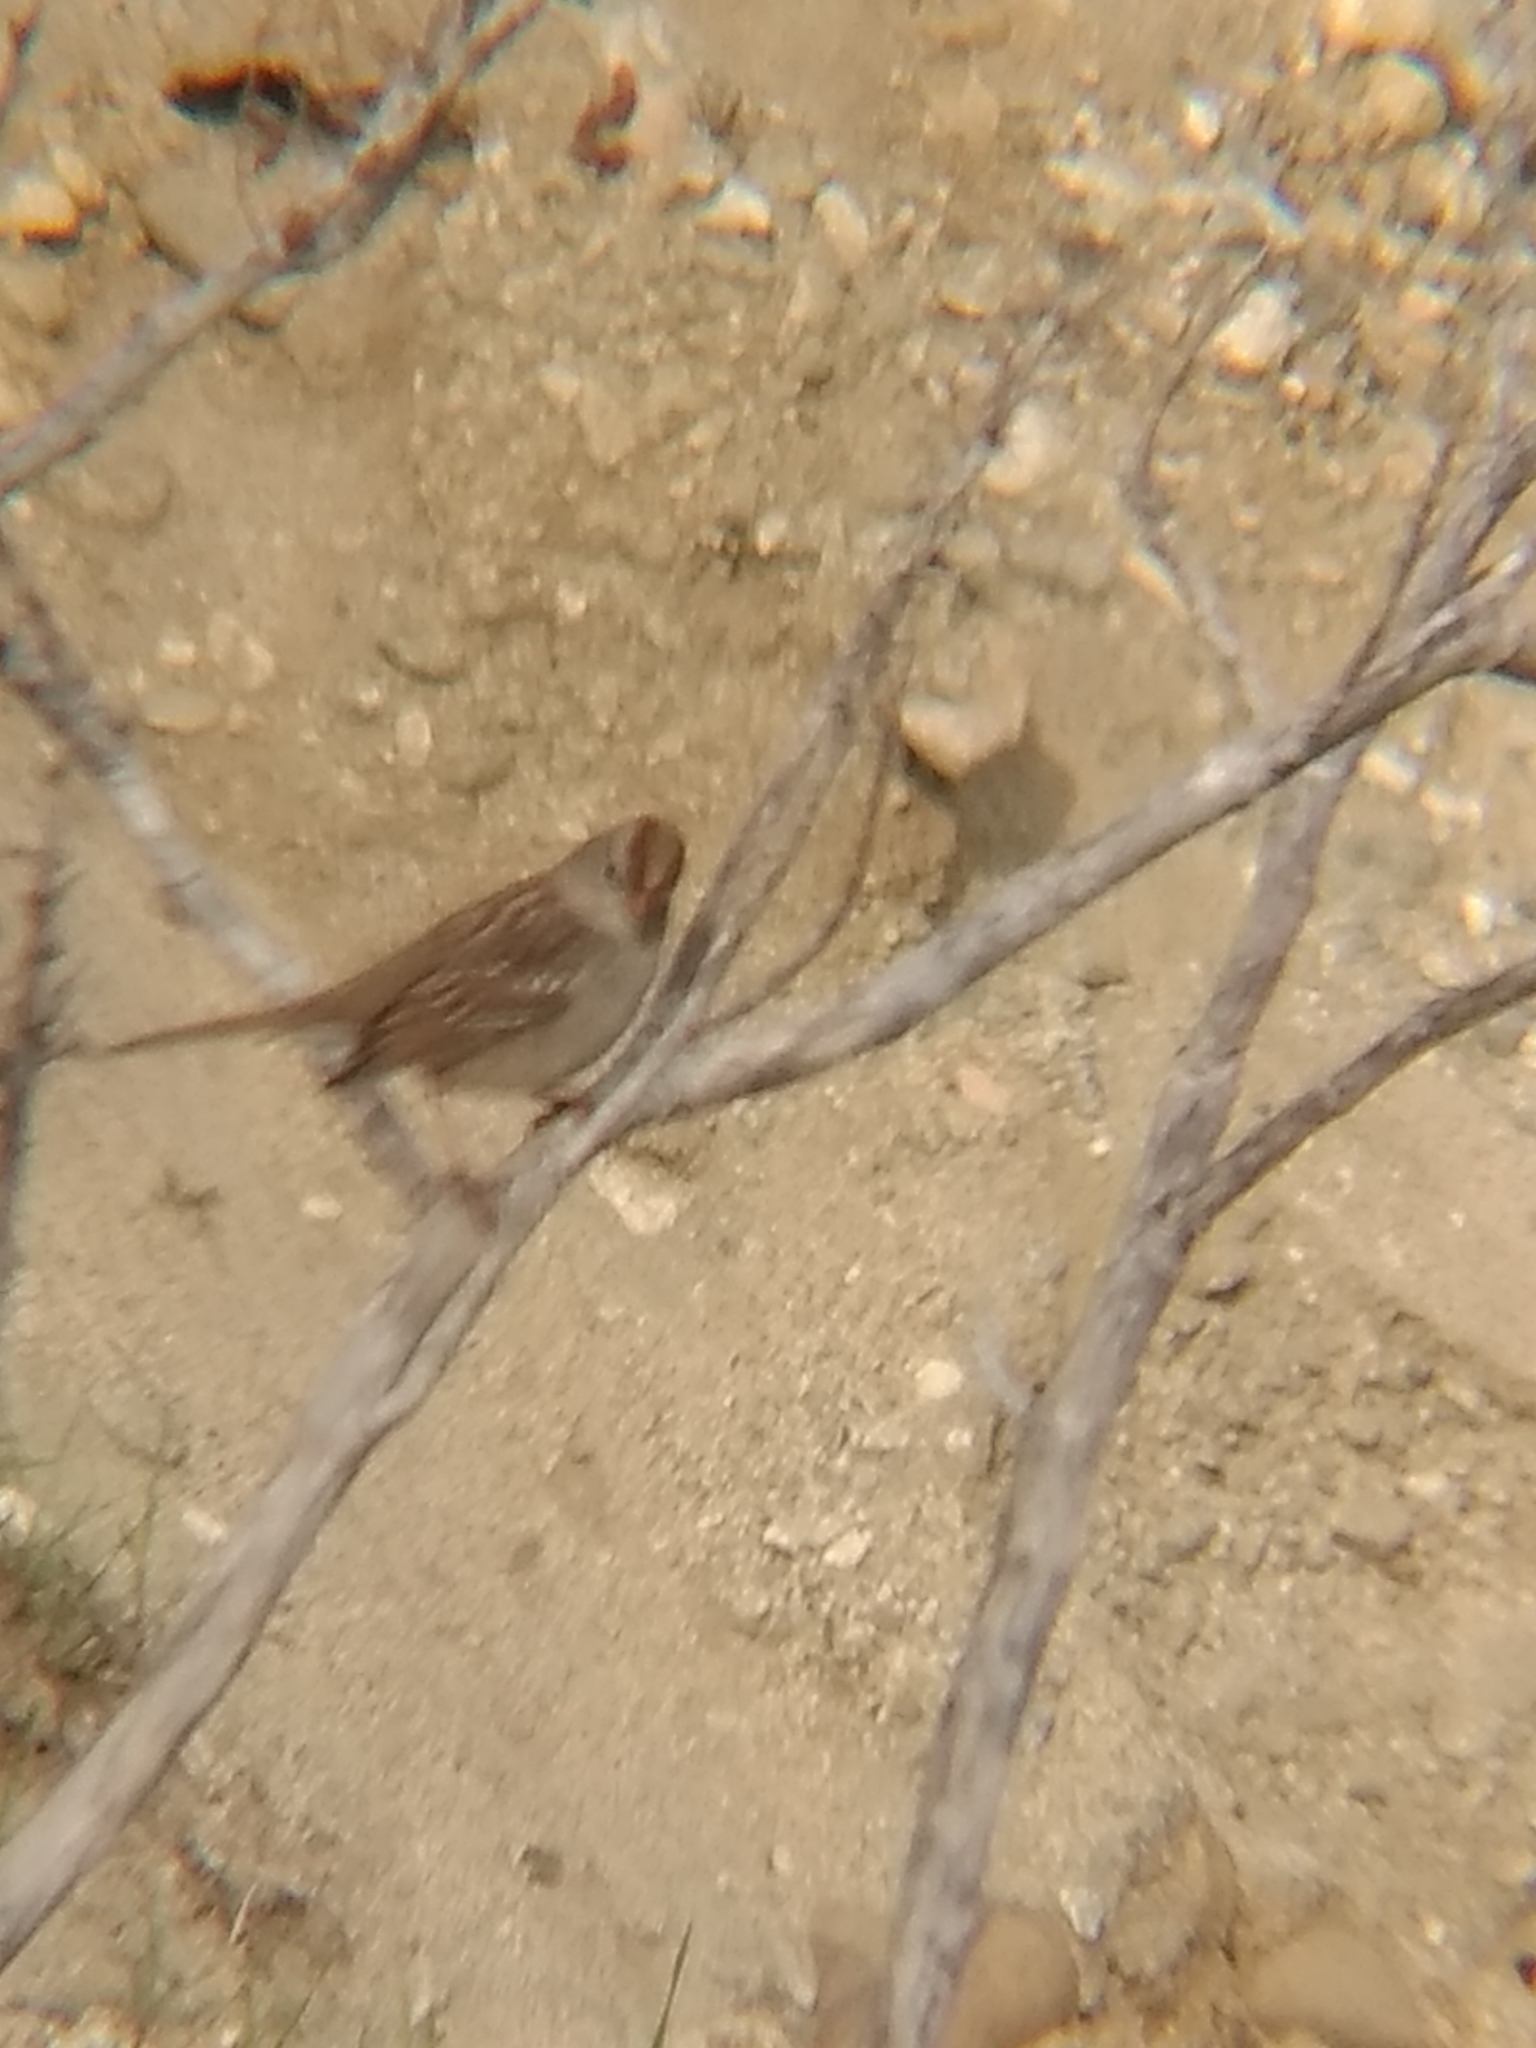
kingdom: Animalia
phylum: Chordata
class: Aves
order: Passeriformes
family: Passerellidae
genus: Zonotrichia
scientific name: Zonotrichia leucophrys
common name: White-crowned sparrow
